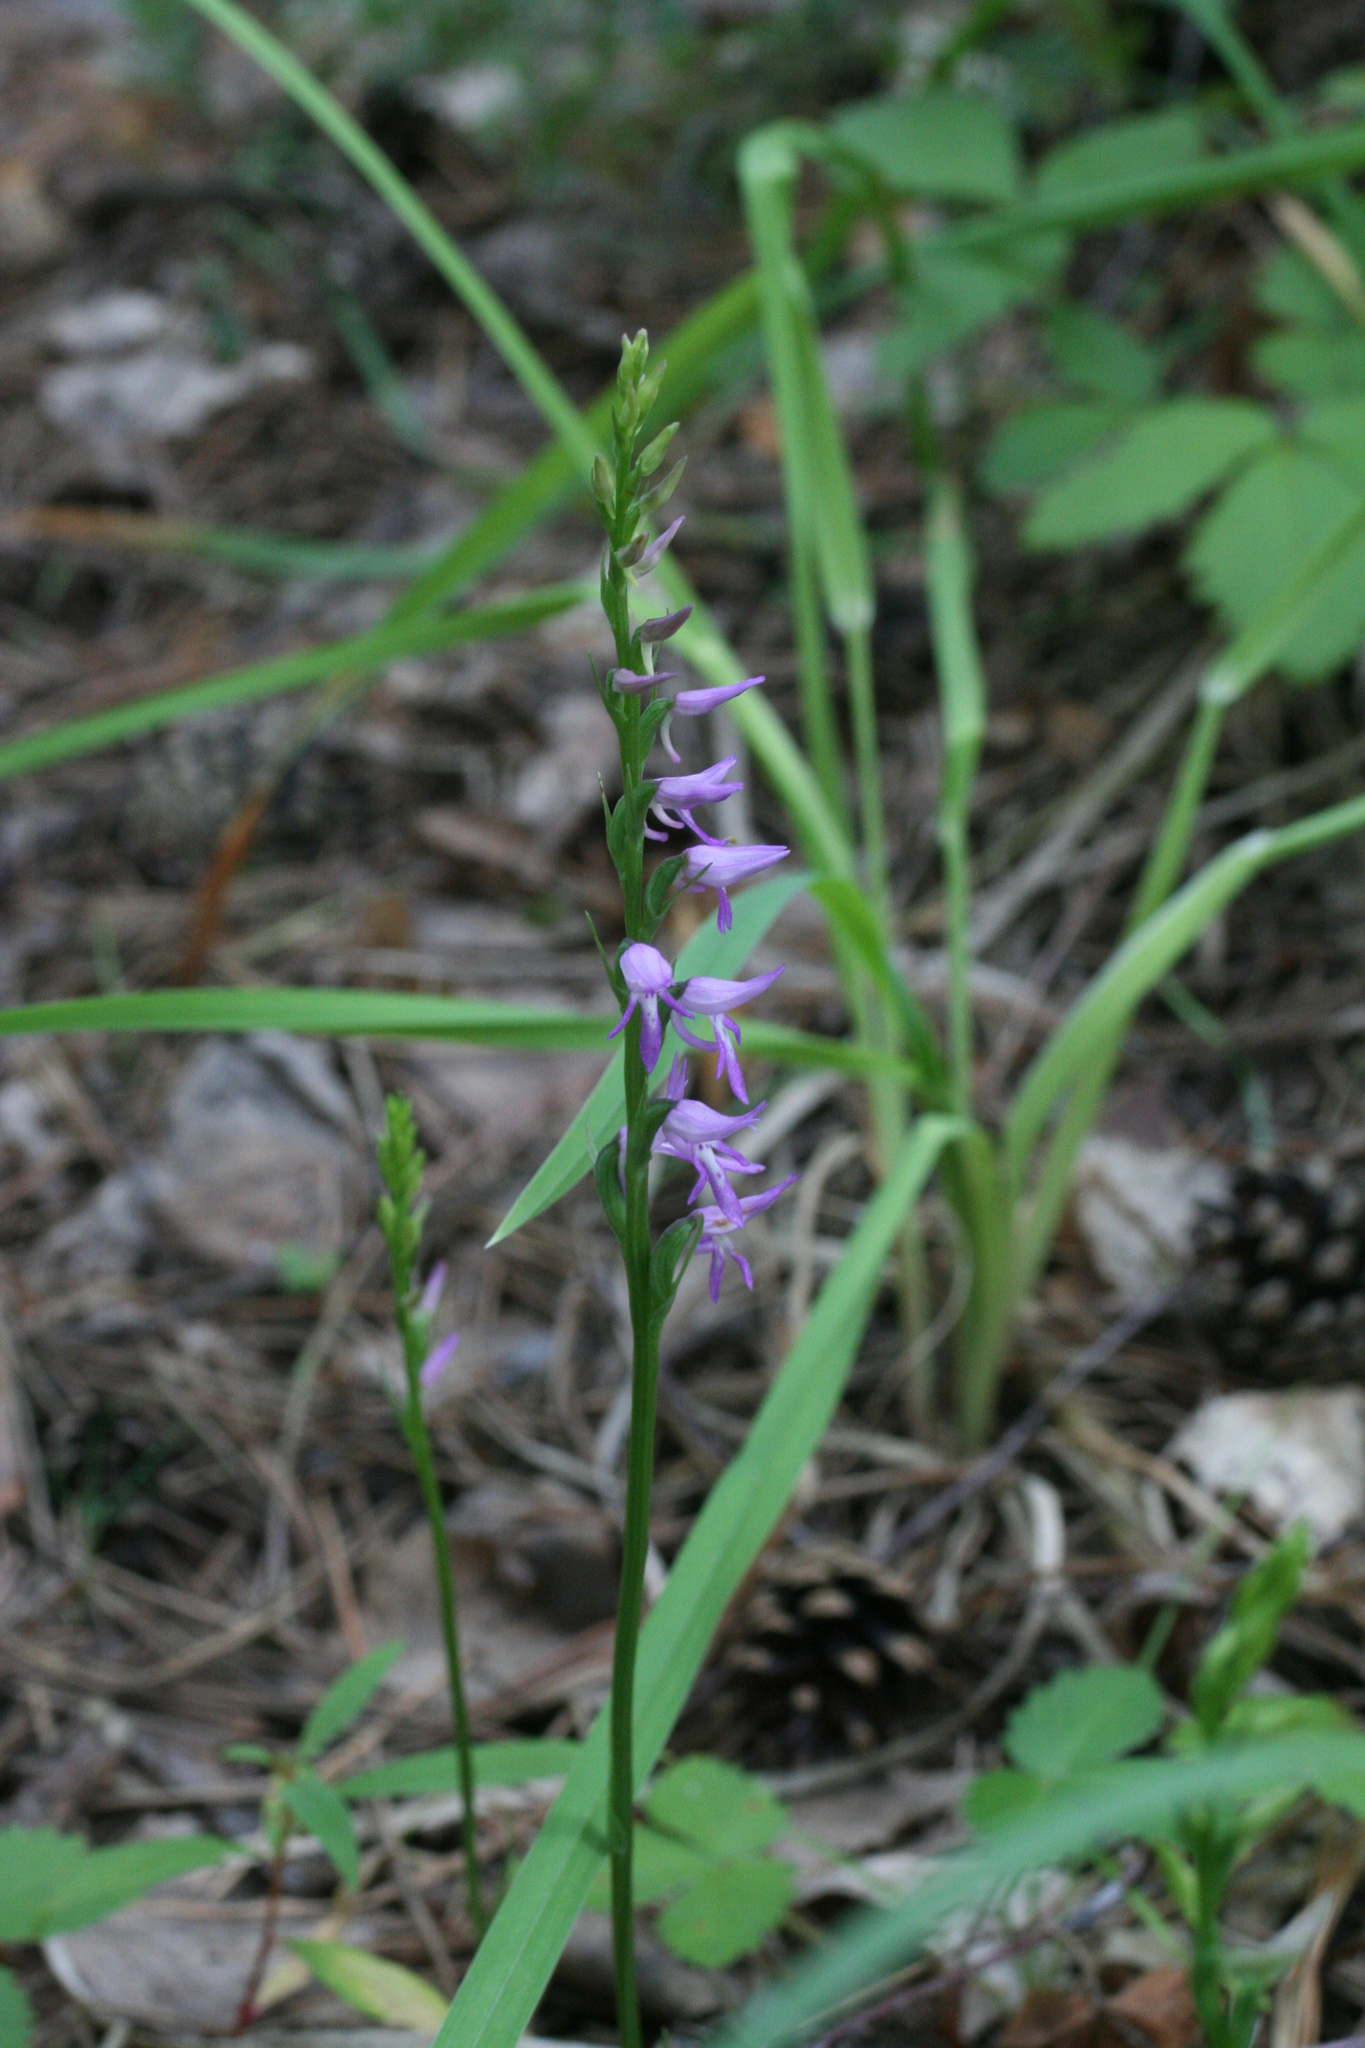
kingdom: Plantae
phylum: Tracheophyta
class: Liliopsida
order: Asparagales
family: Orchidaceae
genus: Hemipilia
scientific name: Hemipilia cucullata
